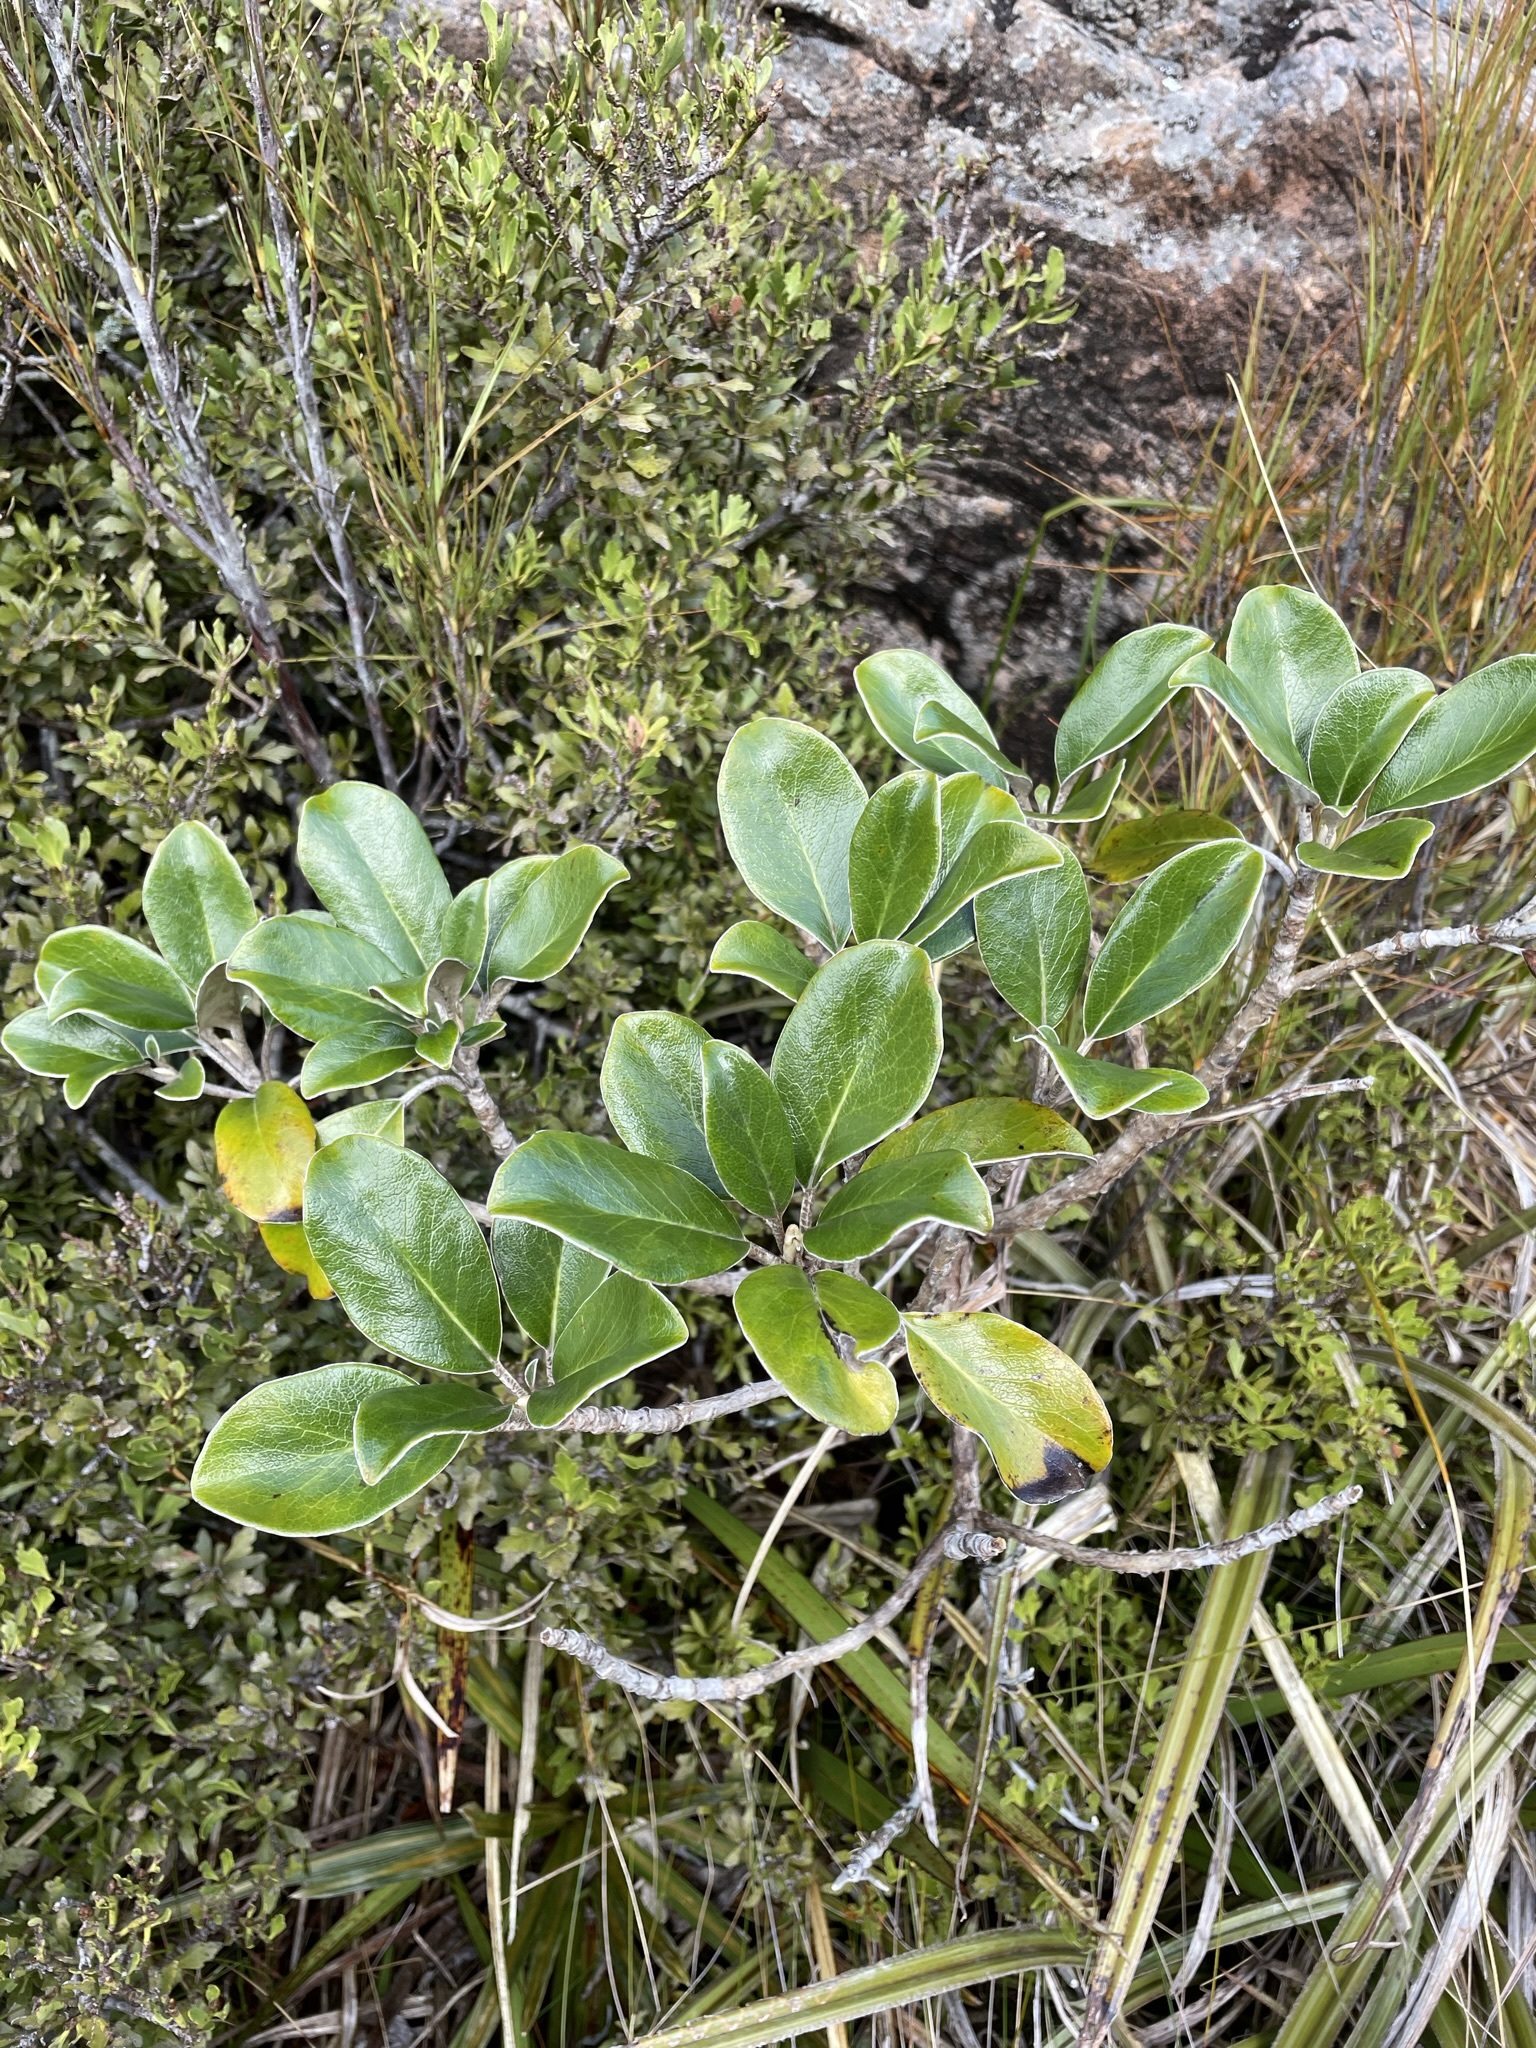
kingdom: Plantae
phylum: Tracheophyta
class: Magnoliopsida
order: Asterales
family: Asteraceae
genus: Brachyglottis
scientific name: Brachyglottis elaeagnifolia
